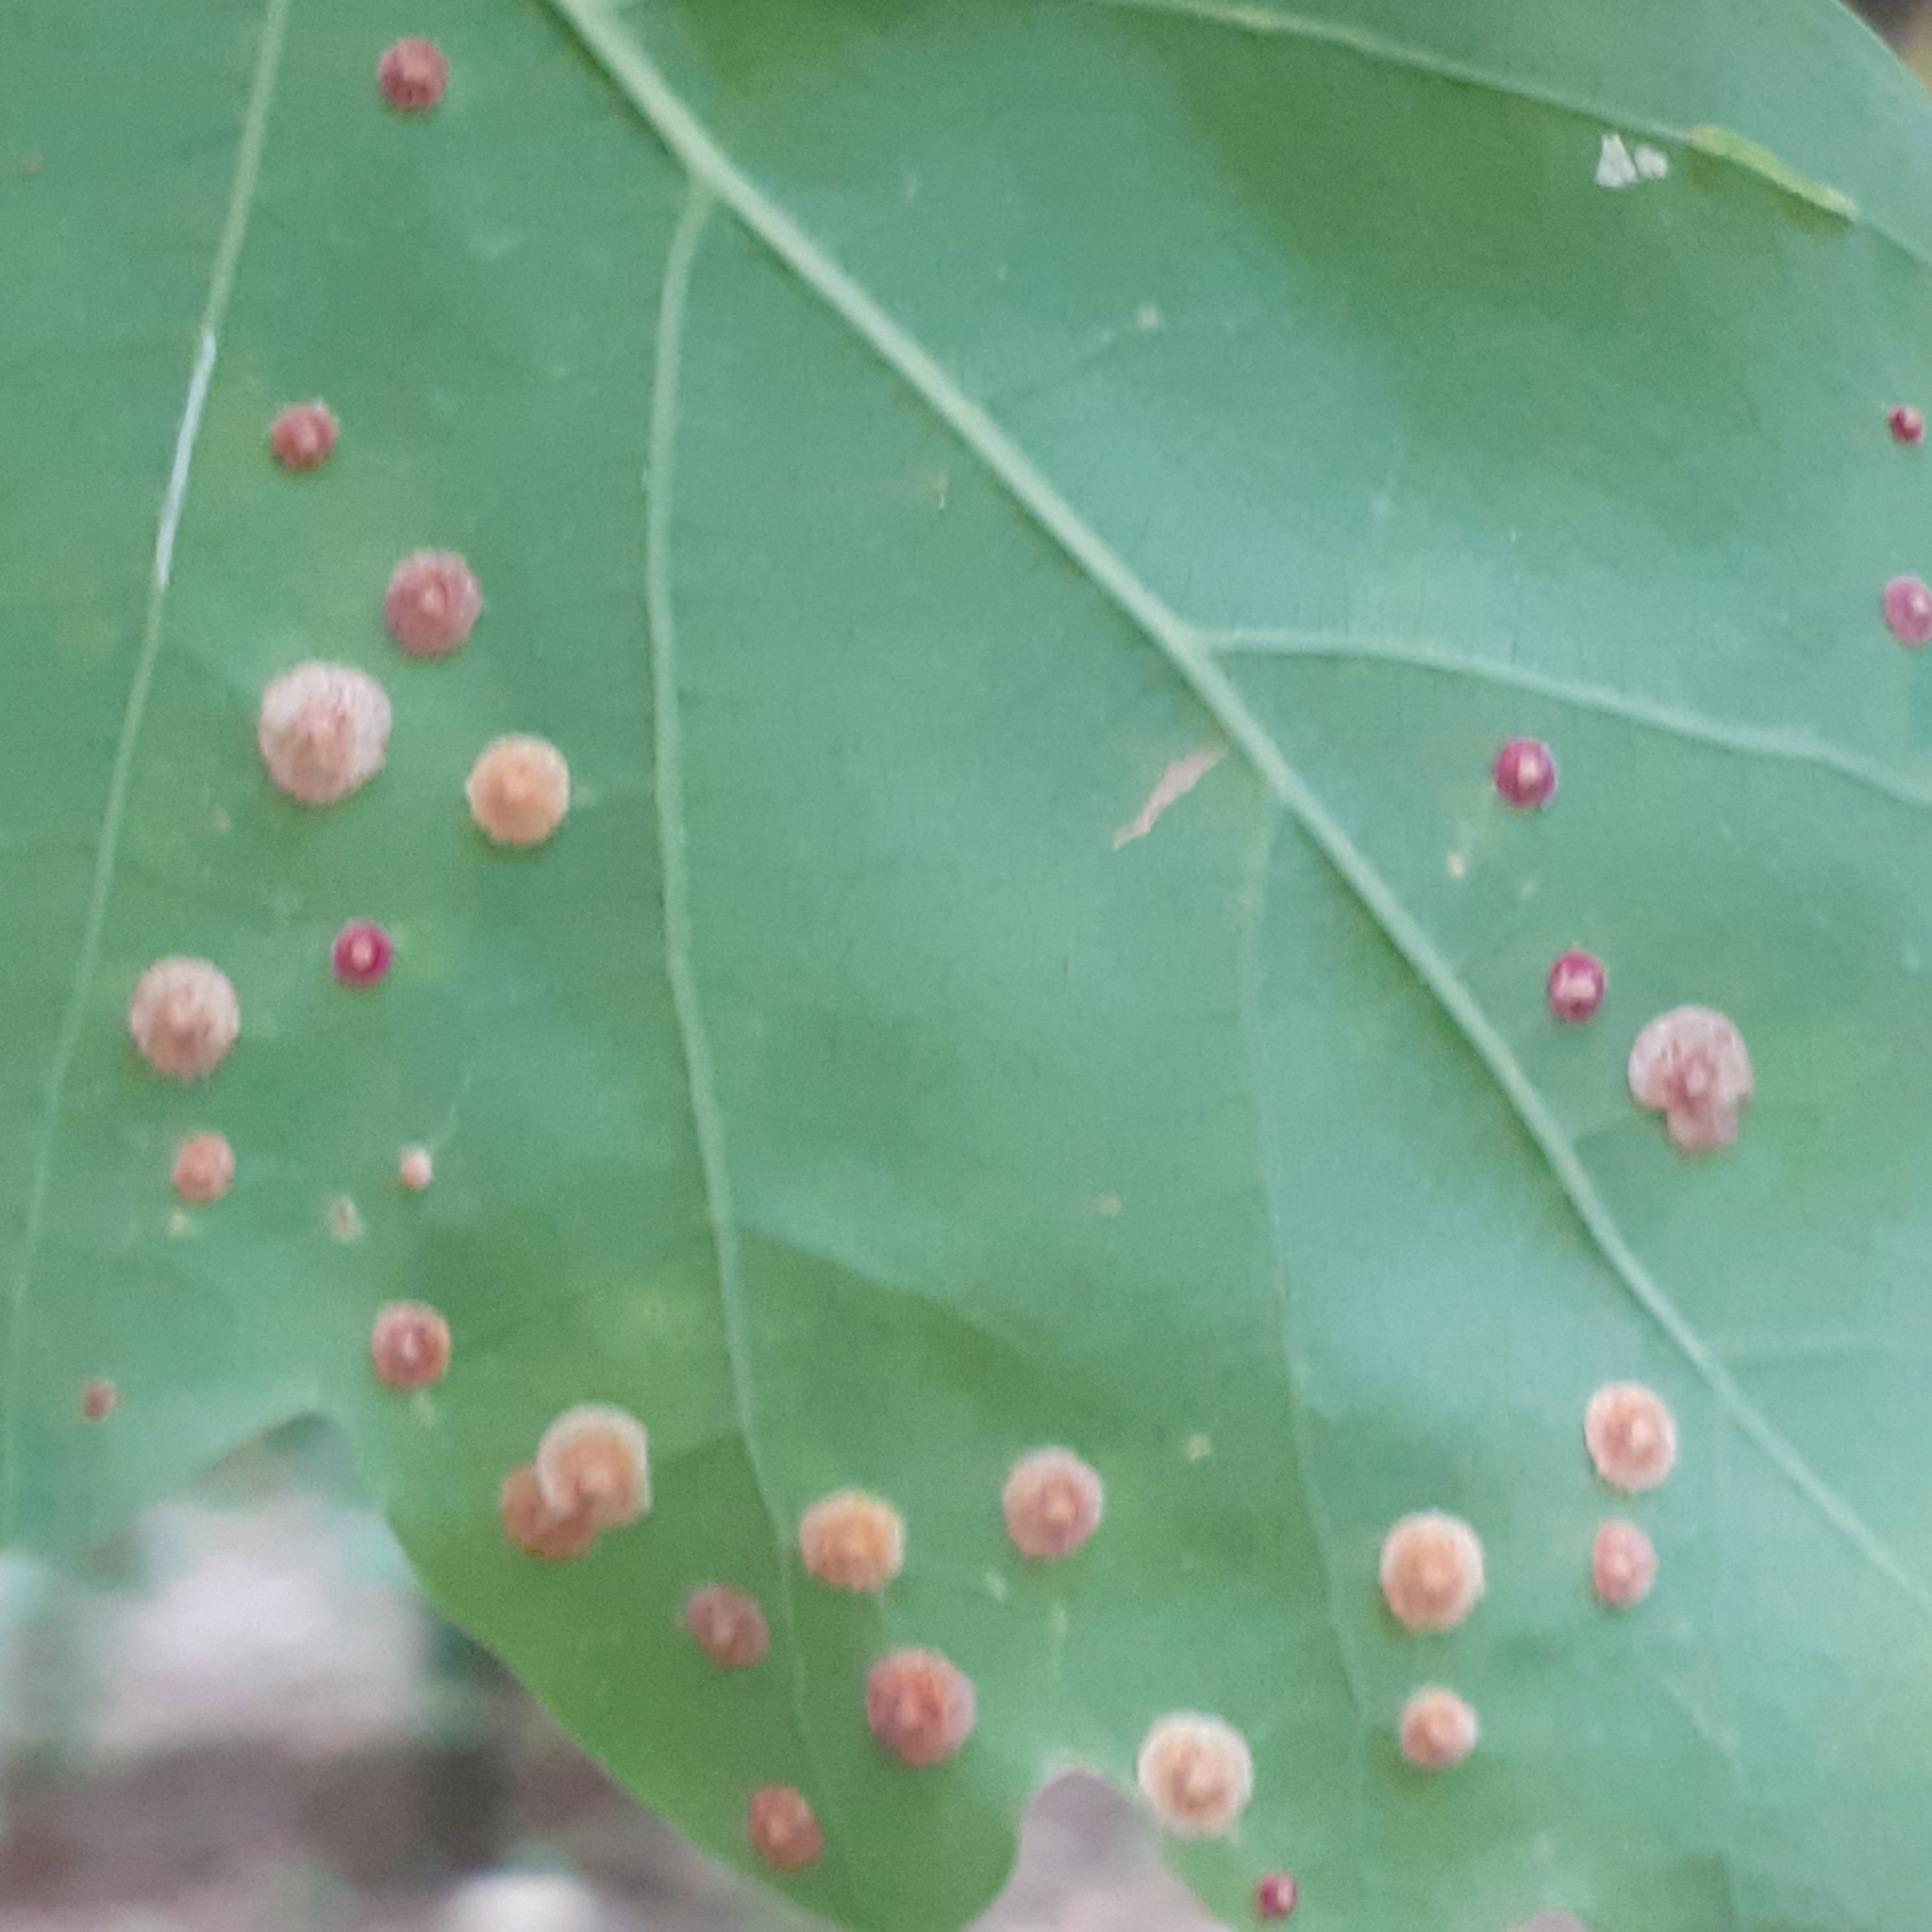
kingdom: Animalia
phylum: Arthropoda
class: Insecta
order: Hymenoptera
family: Cynipidae
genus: Neuroterus
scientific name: Neuroterus quercusbaccarum
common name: Common spangle gall
